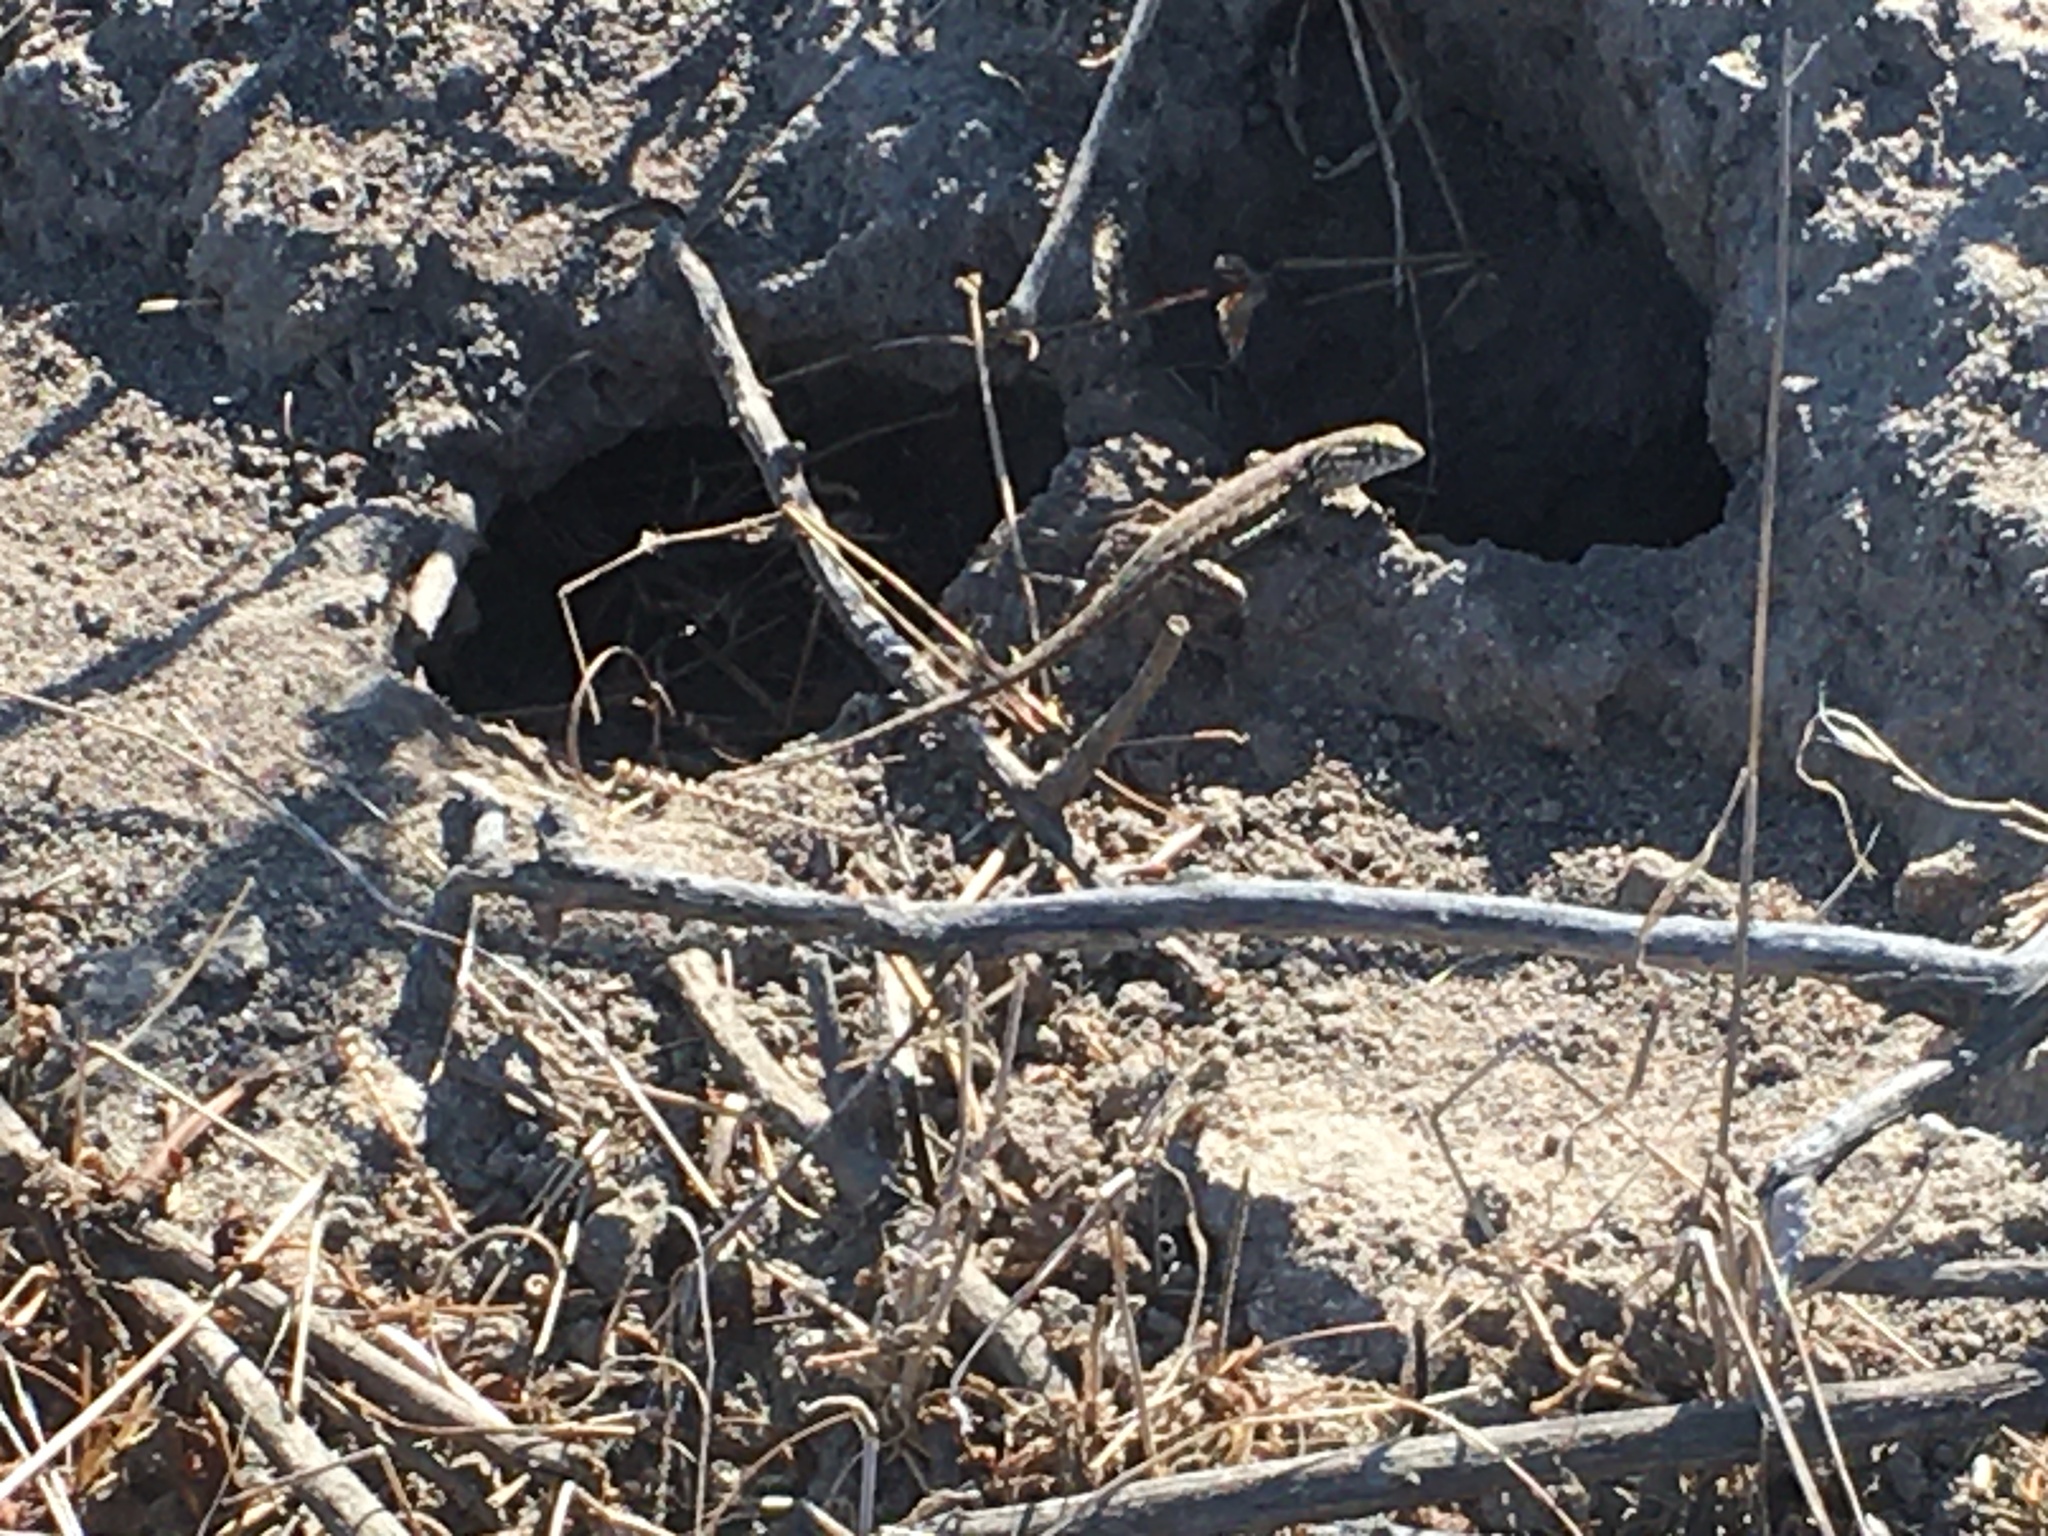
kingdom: Animalia
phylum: Chordata
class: Squamata
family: Phrynosomatidae
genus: Uta
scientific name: Uta stansburiana
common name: Side-blotched lizard
